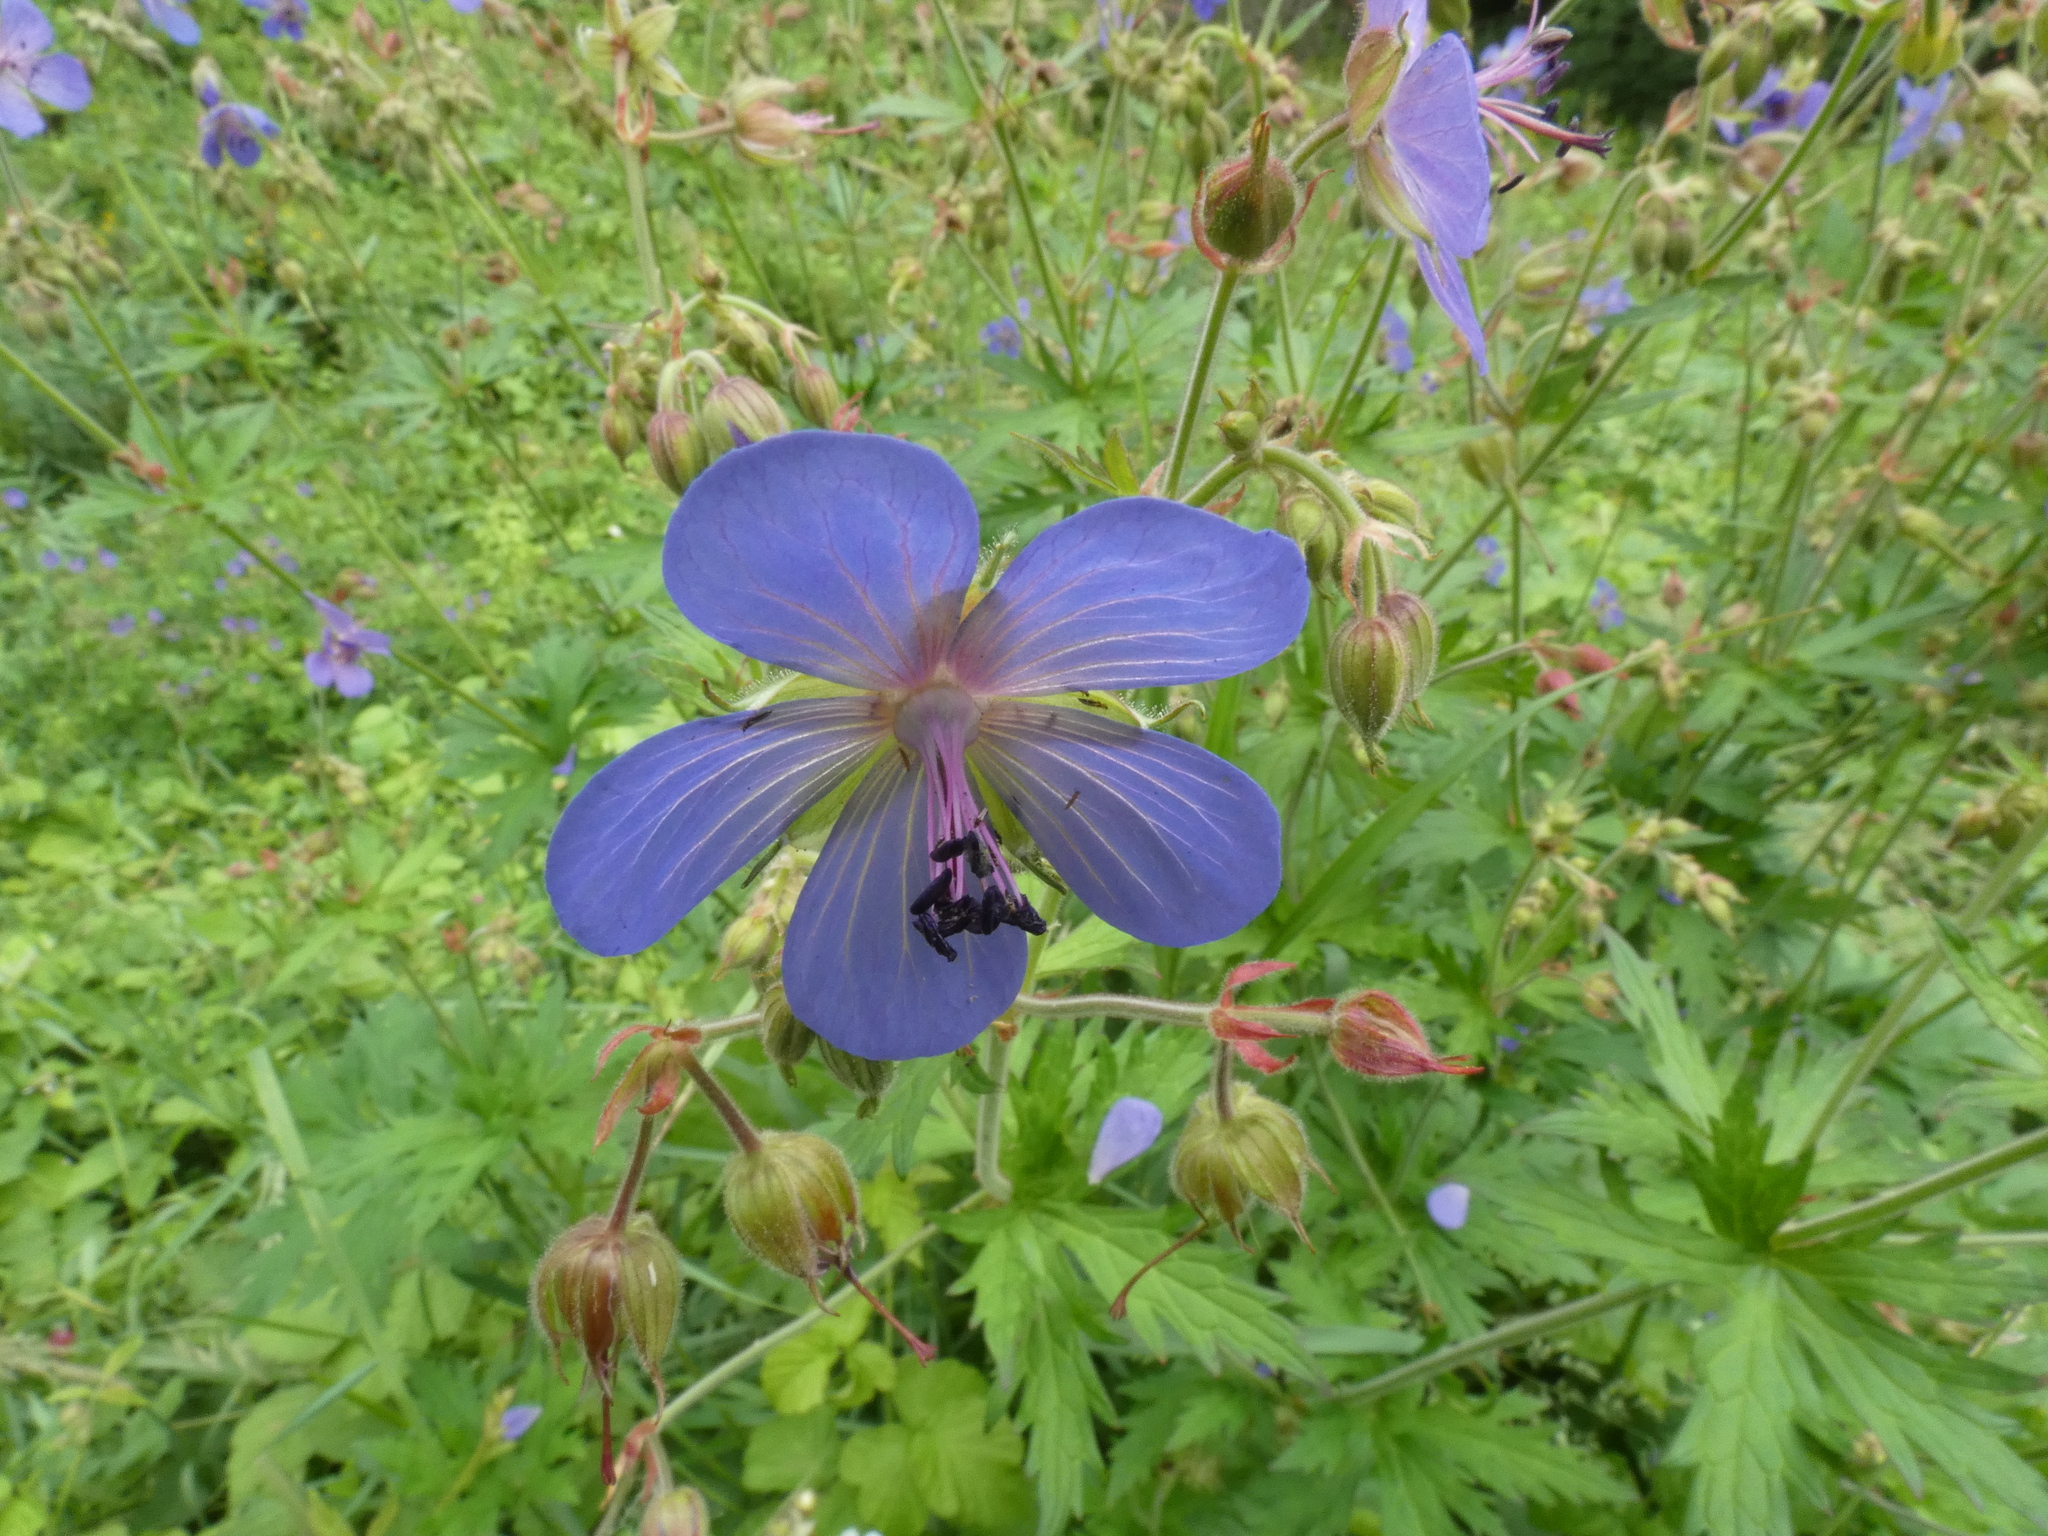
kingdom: Plantae
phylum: Tracheophyta
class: Magnoliopsida
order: Geraniales
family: Geraniaceae
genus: Geranium
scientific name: Geranium pratense
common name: Meadow crane's-bill
